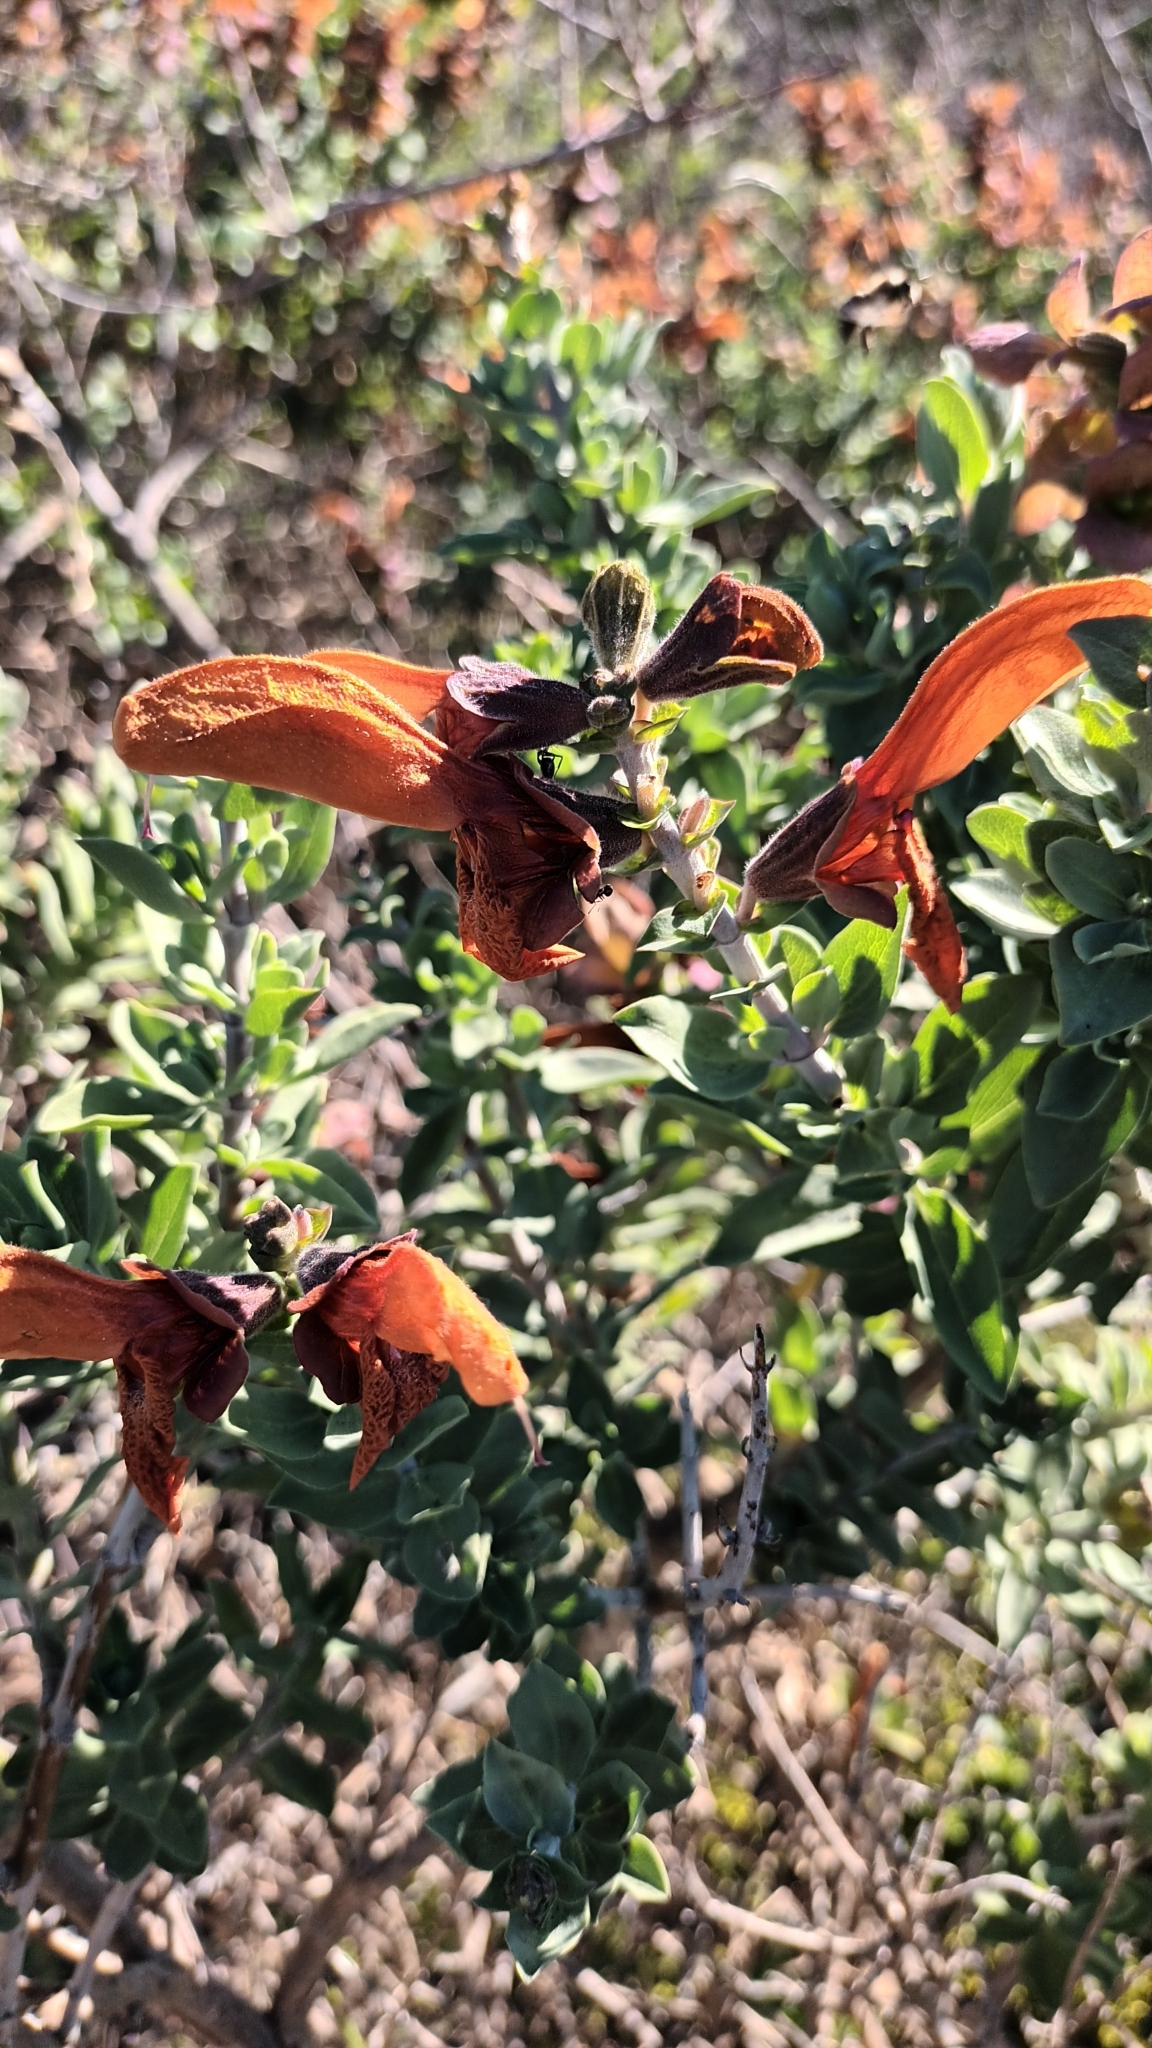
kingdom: Plantae
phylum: Tracheophyta
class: Magnoliopsida
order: Lamiales
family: Lamiaceae
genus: Salvia
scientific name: Salvia aurea
